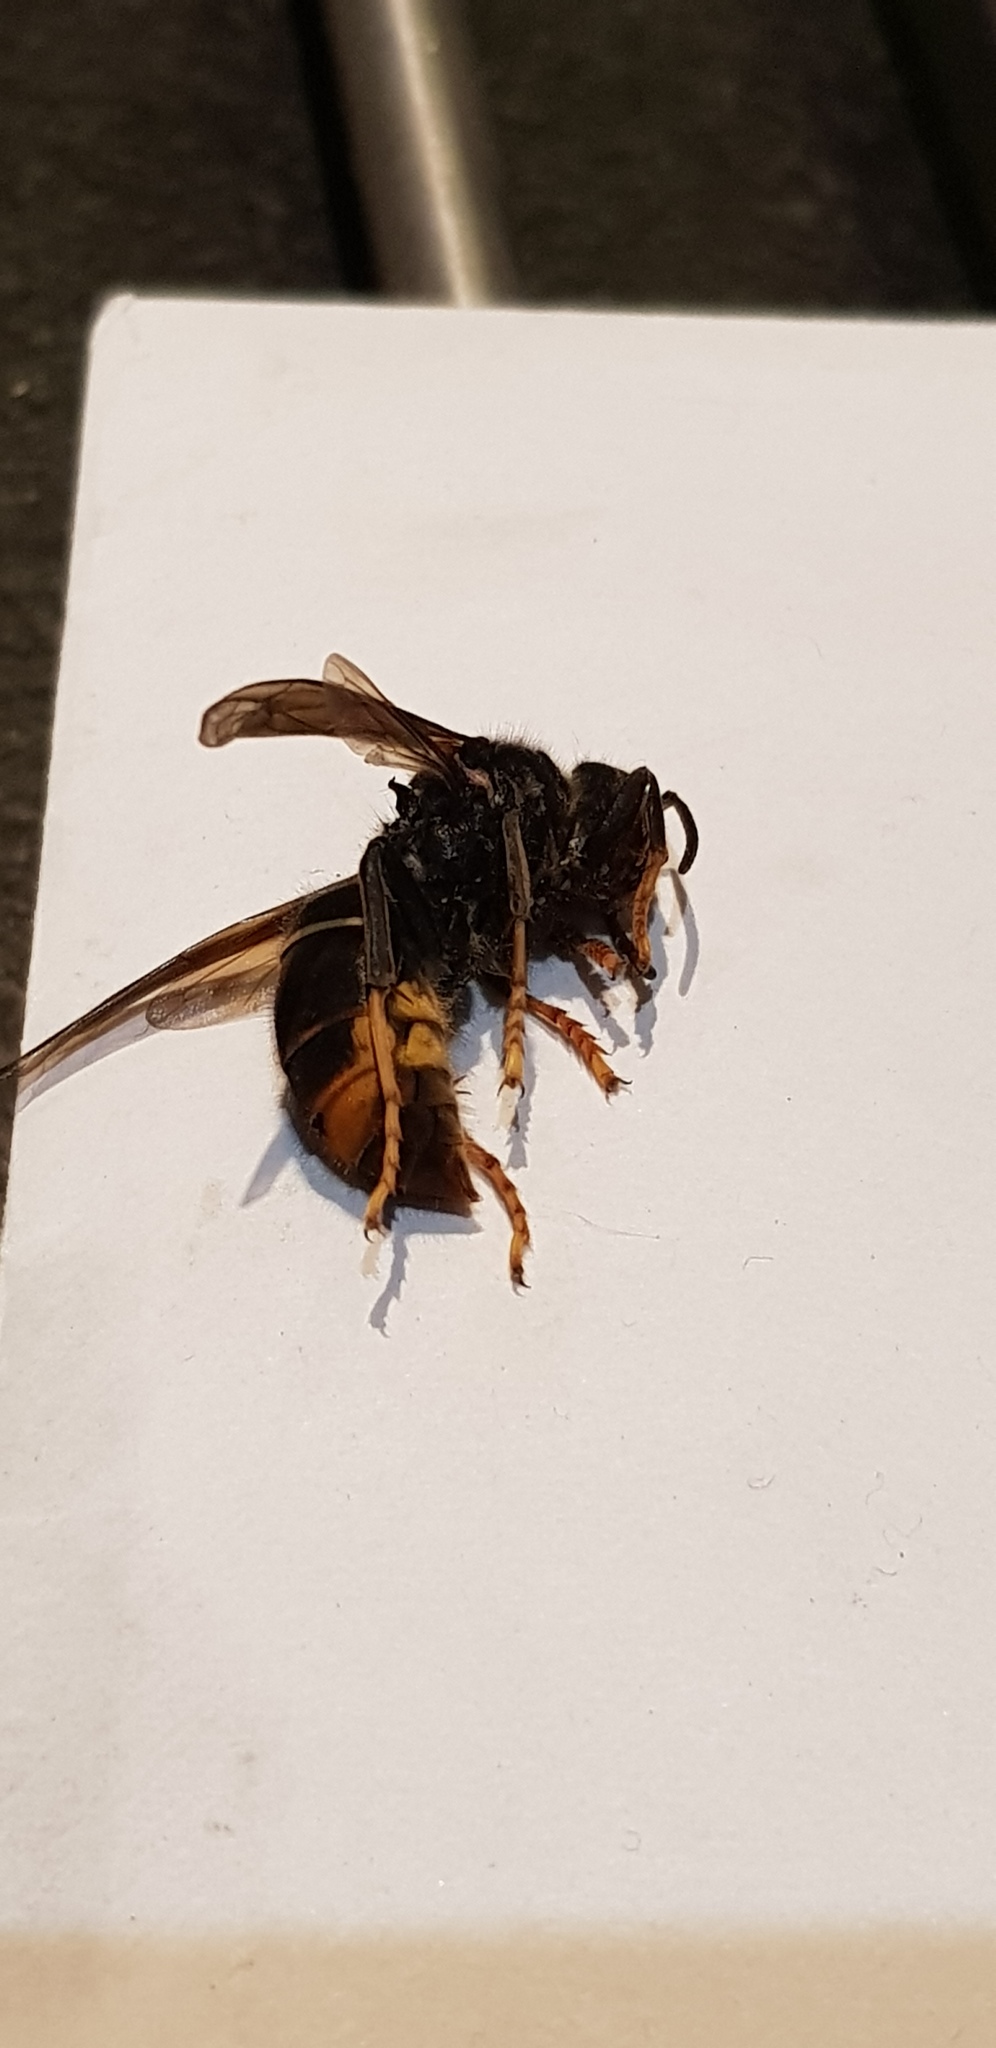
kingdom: Animalia
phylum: Arthropoda
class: Insecta
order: Hymenoptera
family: Vespidae
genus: Vespa
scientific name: Vespa velutina
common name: Asian hornet
